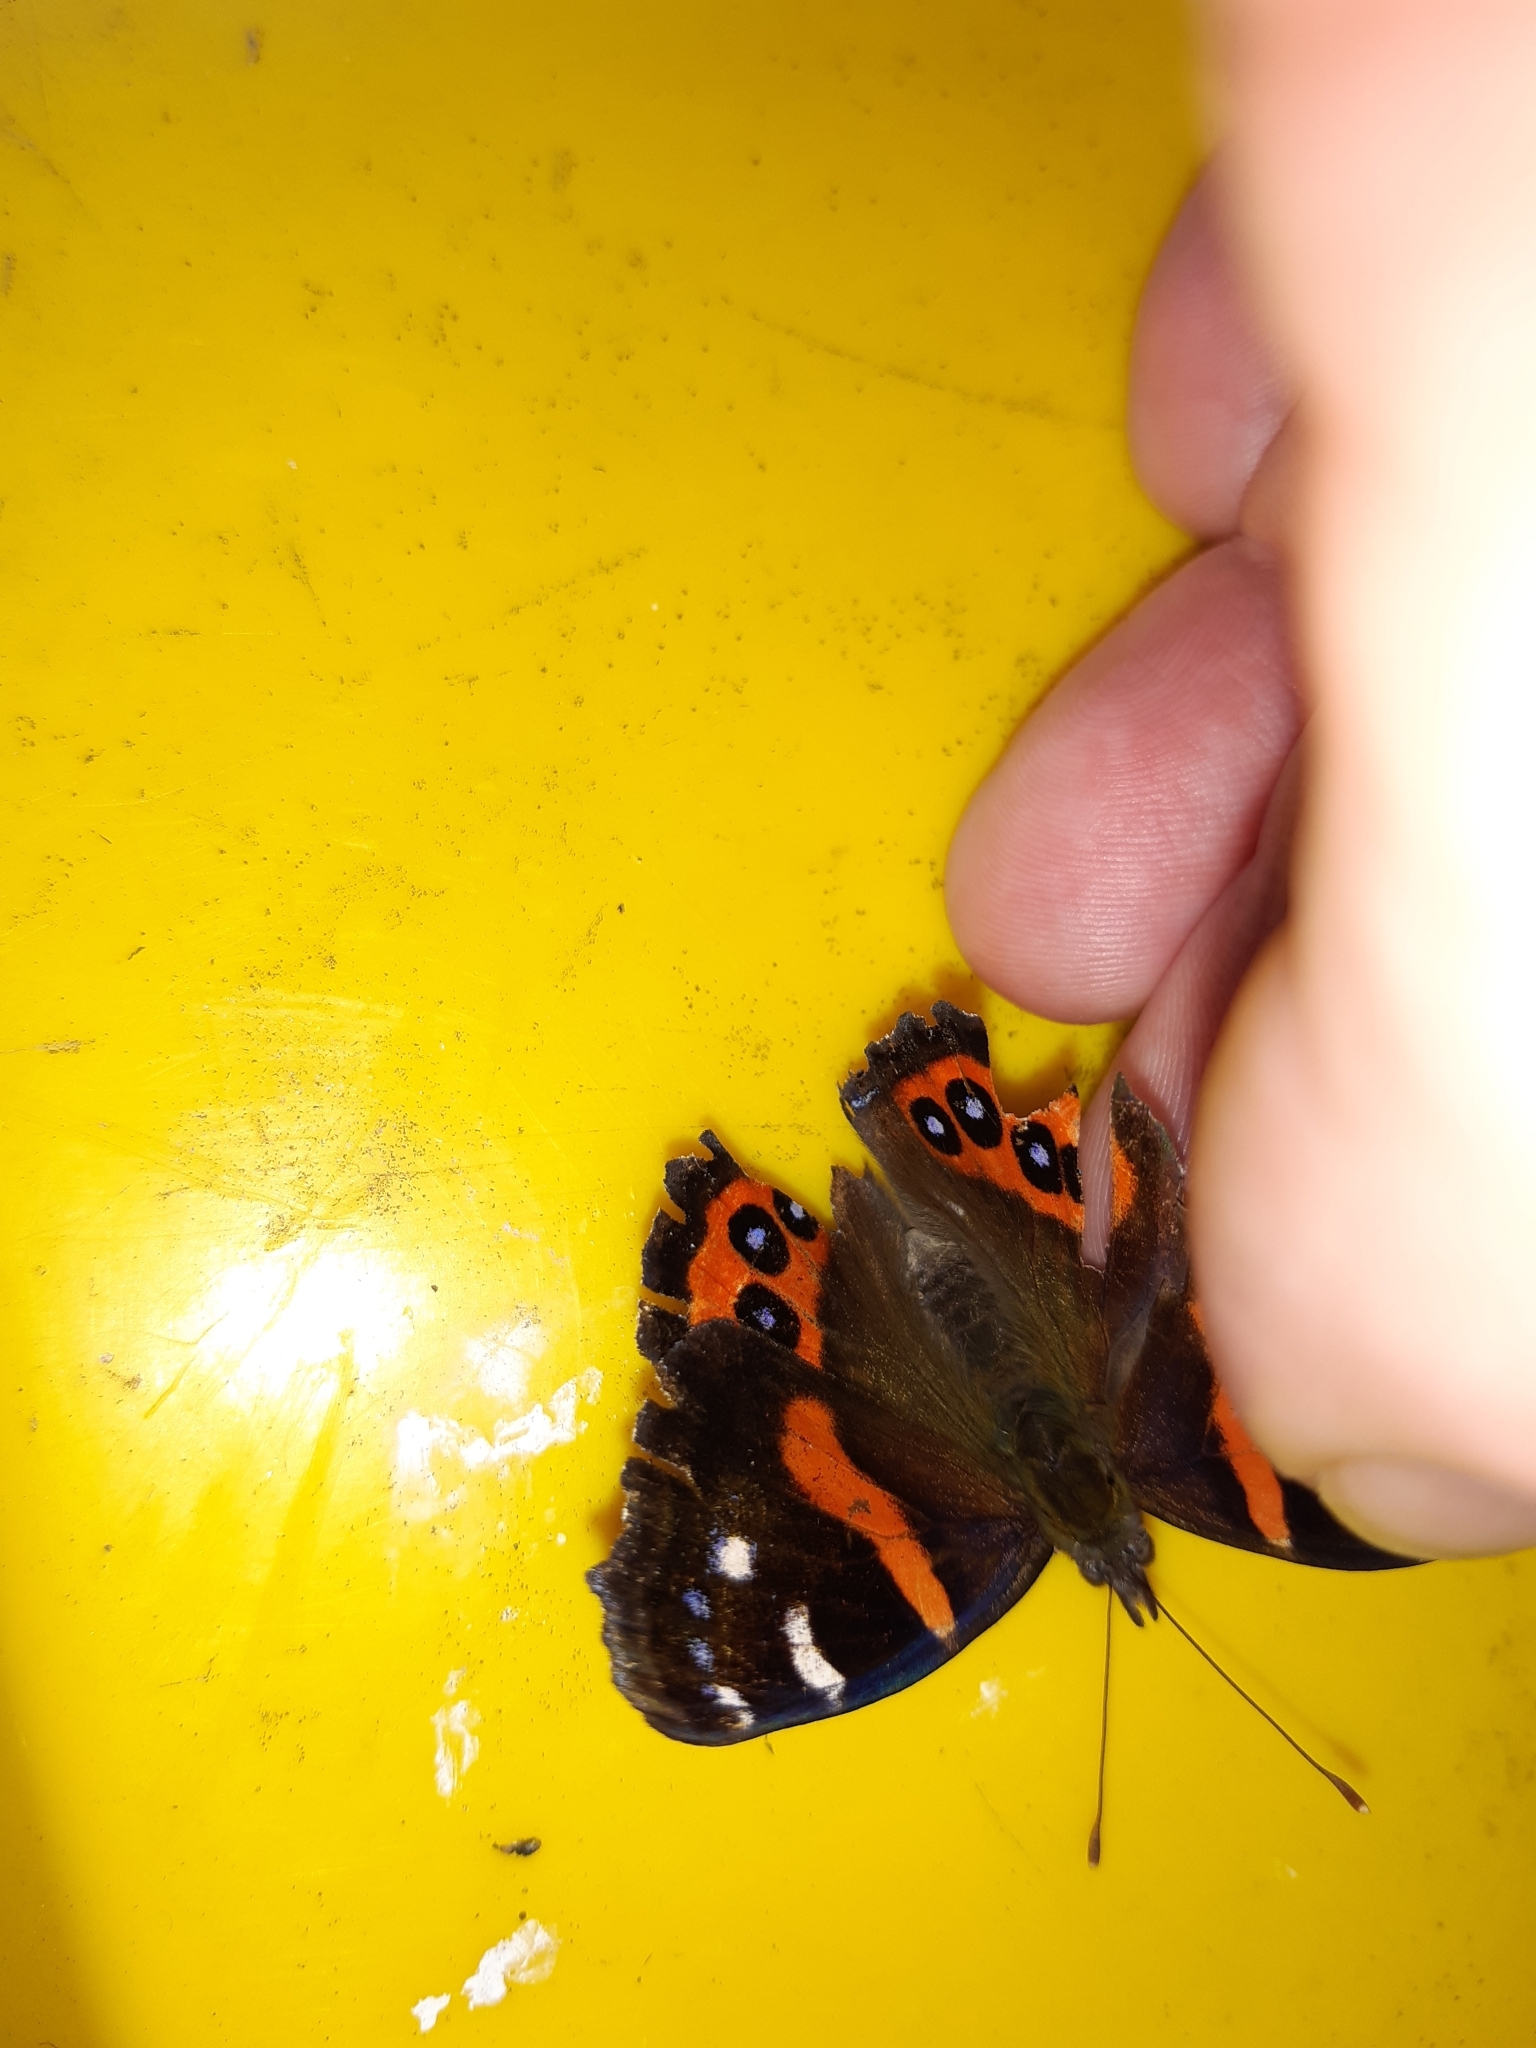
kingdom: Animalia
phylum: Arthropoda
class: Insecta
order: Lepidoptera
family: Nymphalidae
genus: Vanessa
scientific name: Vanessa gonerilla
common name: New zealand red admiral
